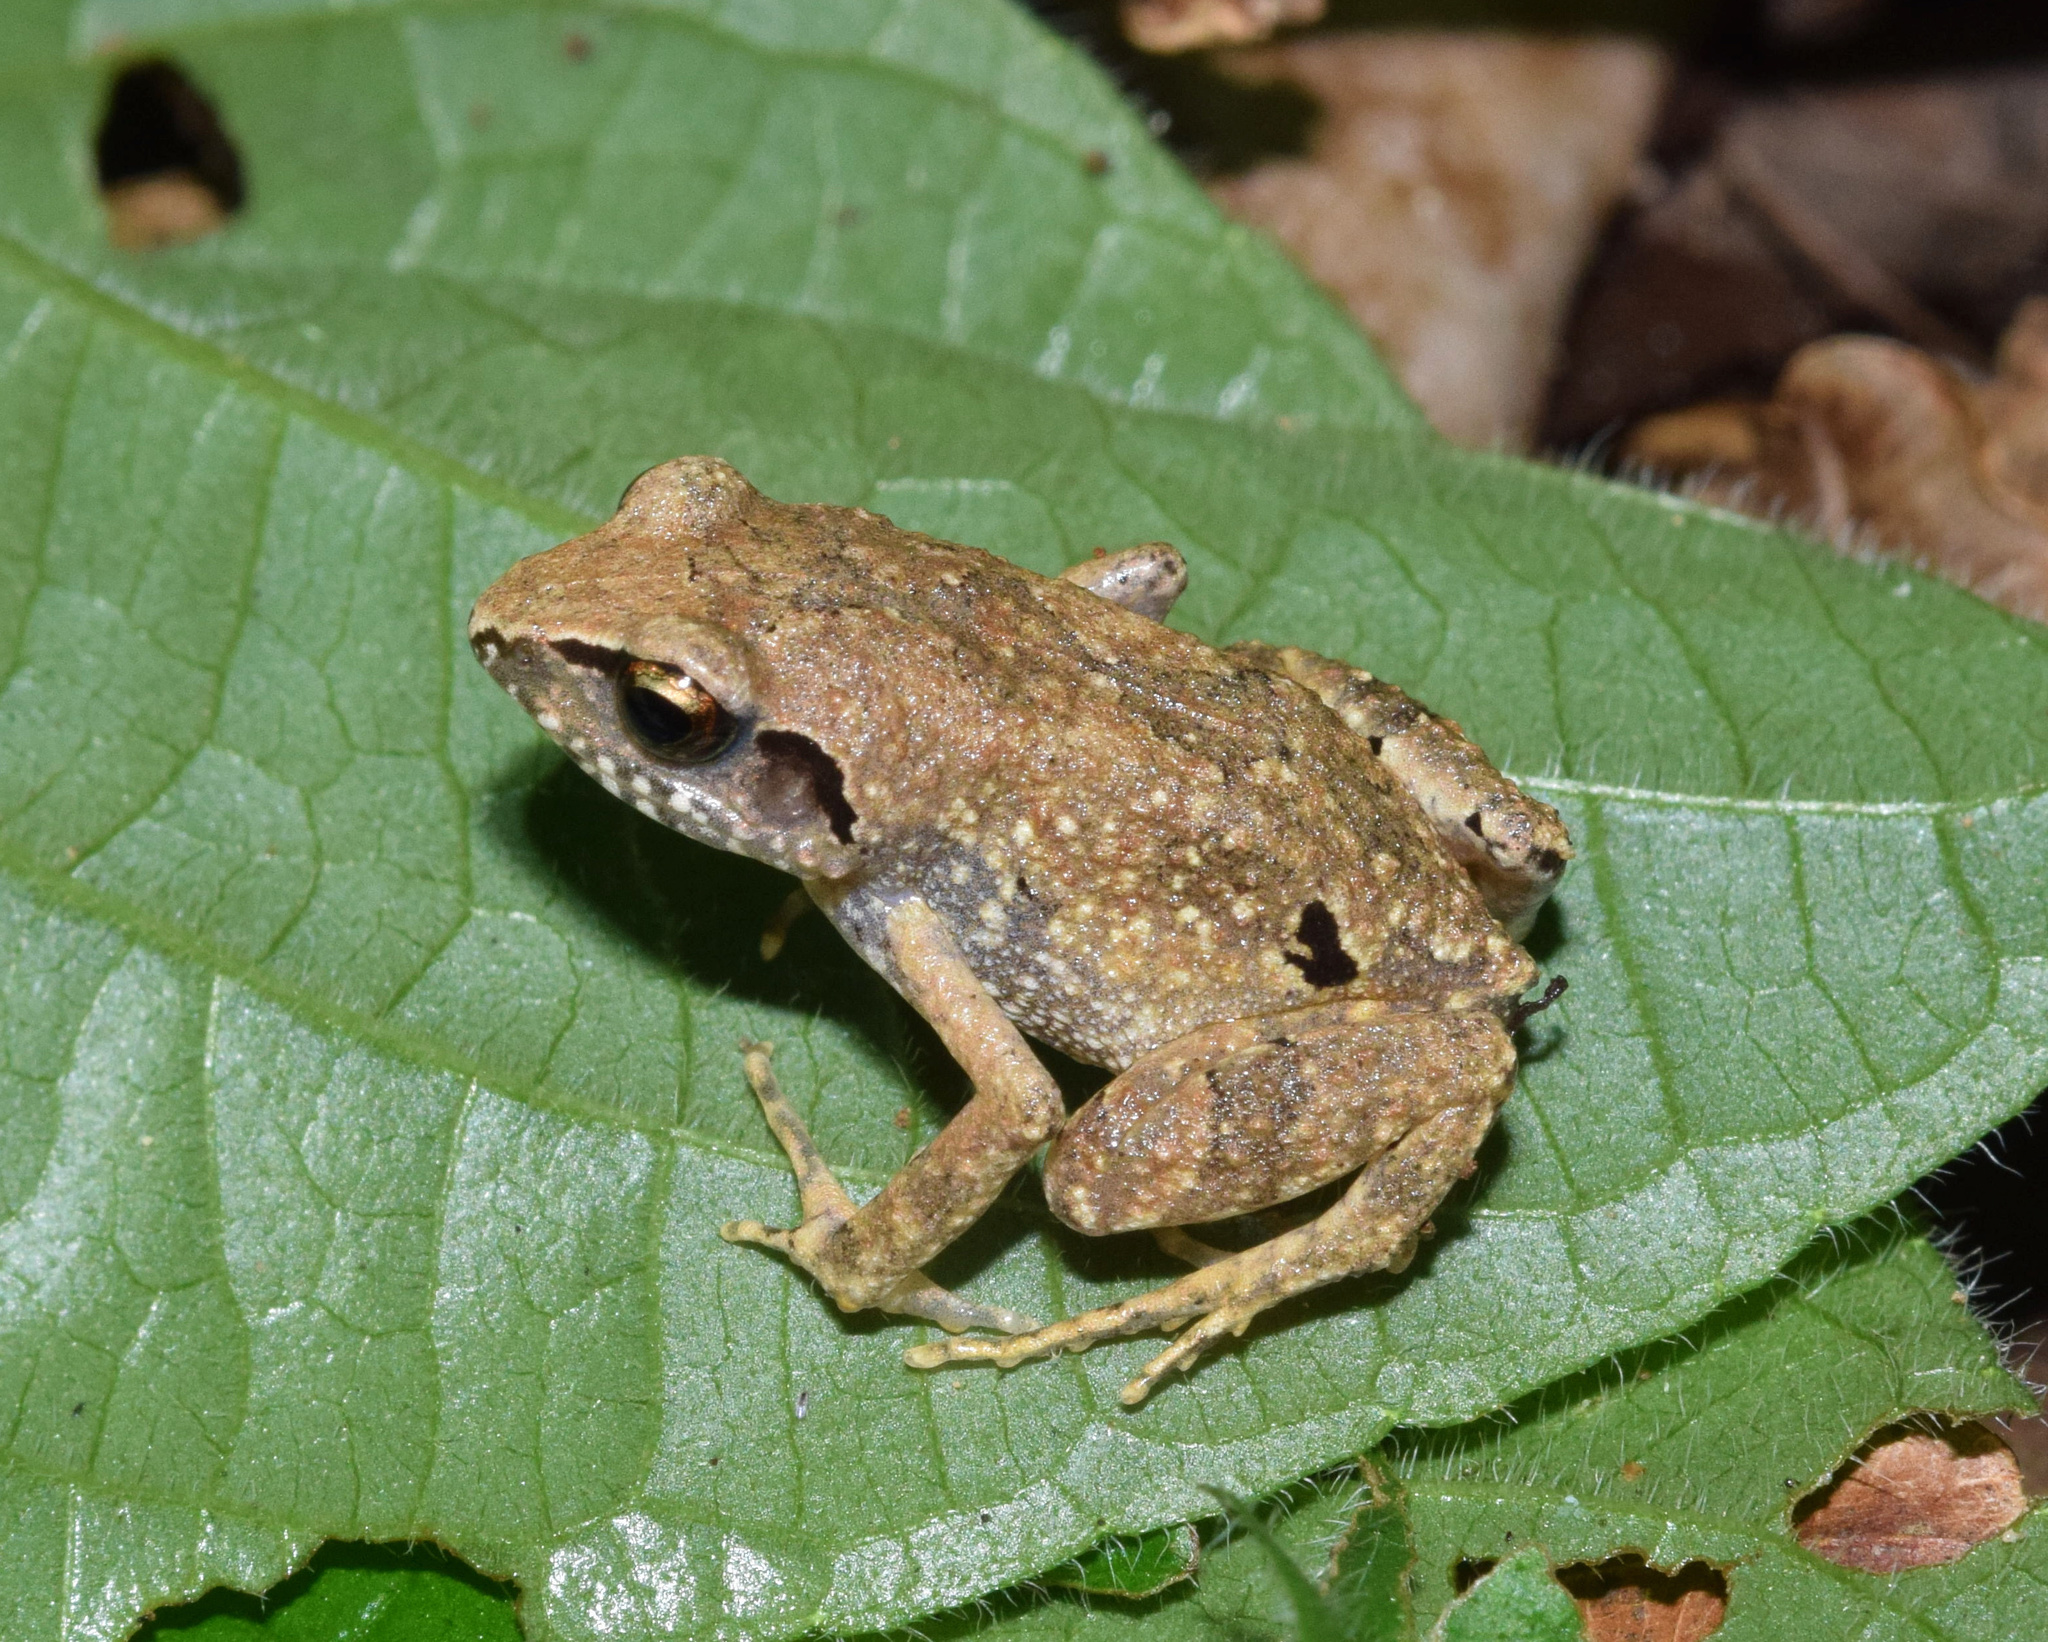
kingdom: Animalia
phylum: Chordata
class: Amphibia
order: Anura
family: Arthroleptidae
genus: Arthroleptis
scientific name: Arthroleptis wahlbergii
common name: Bush squeaker
